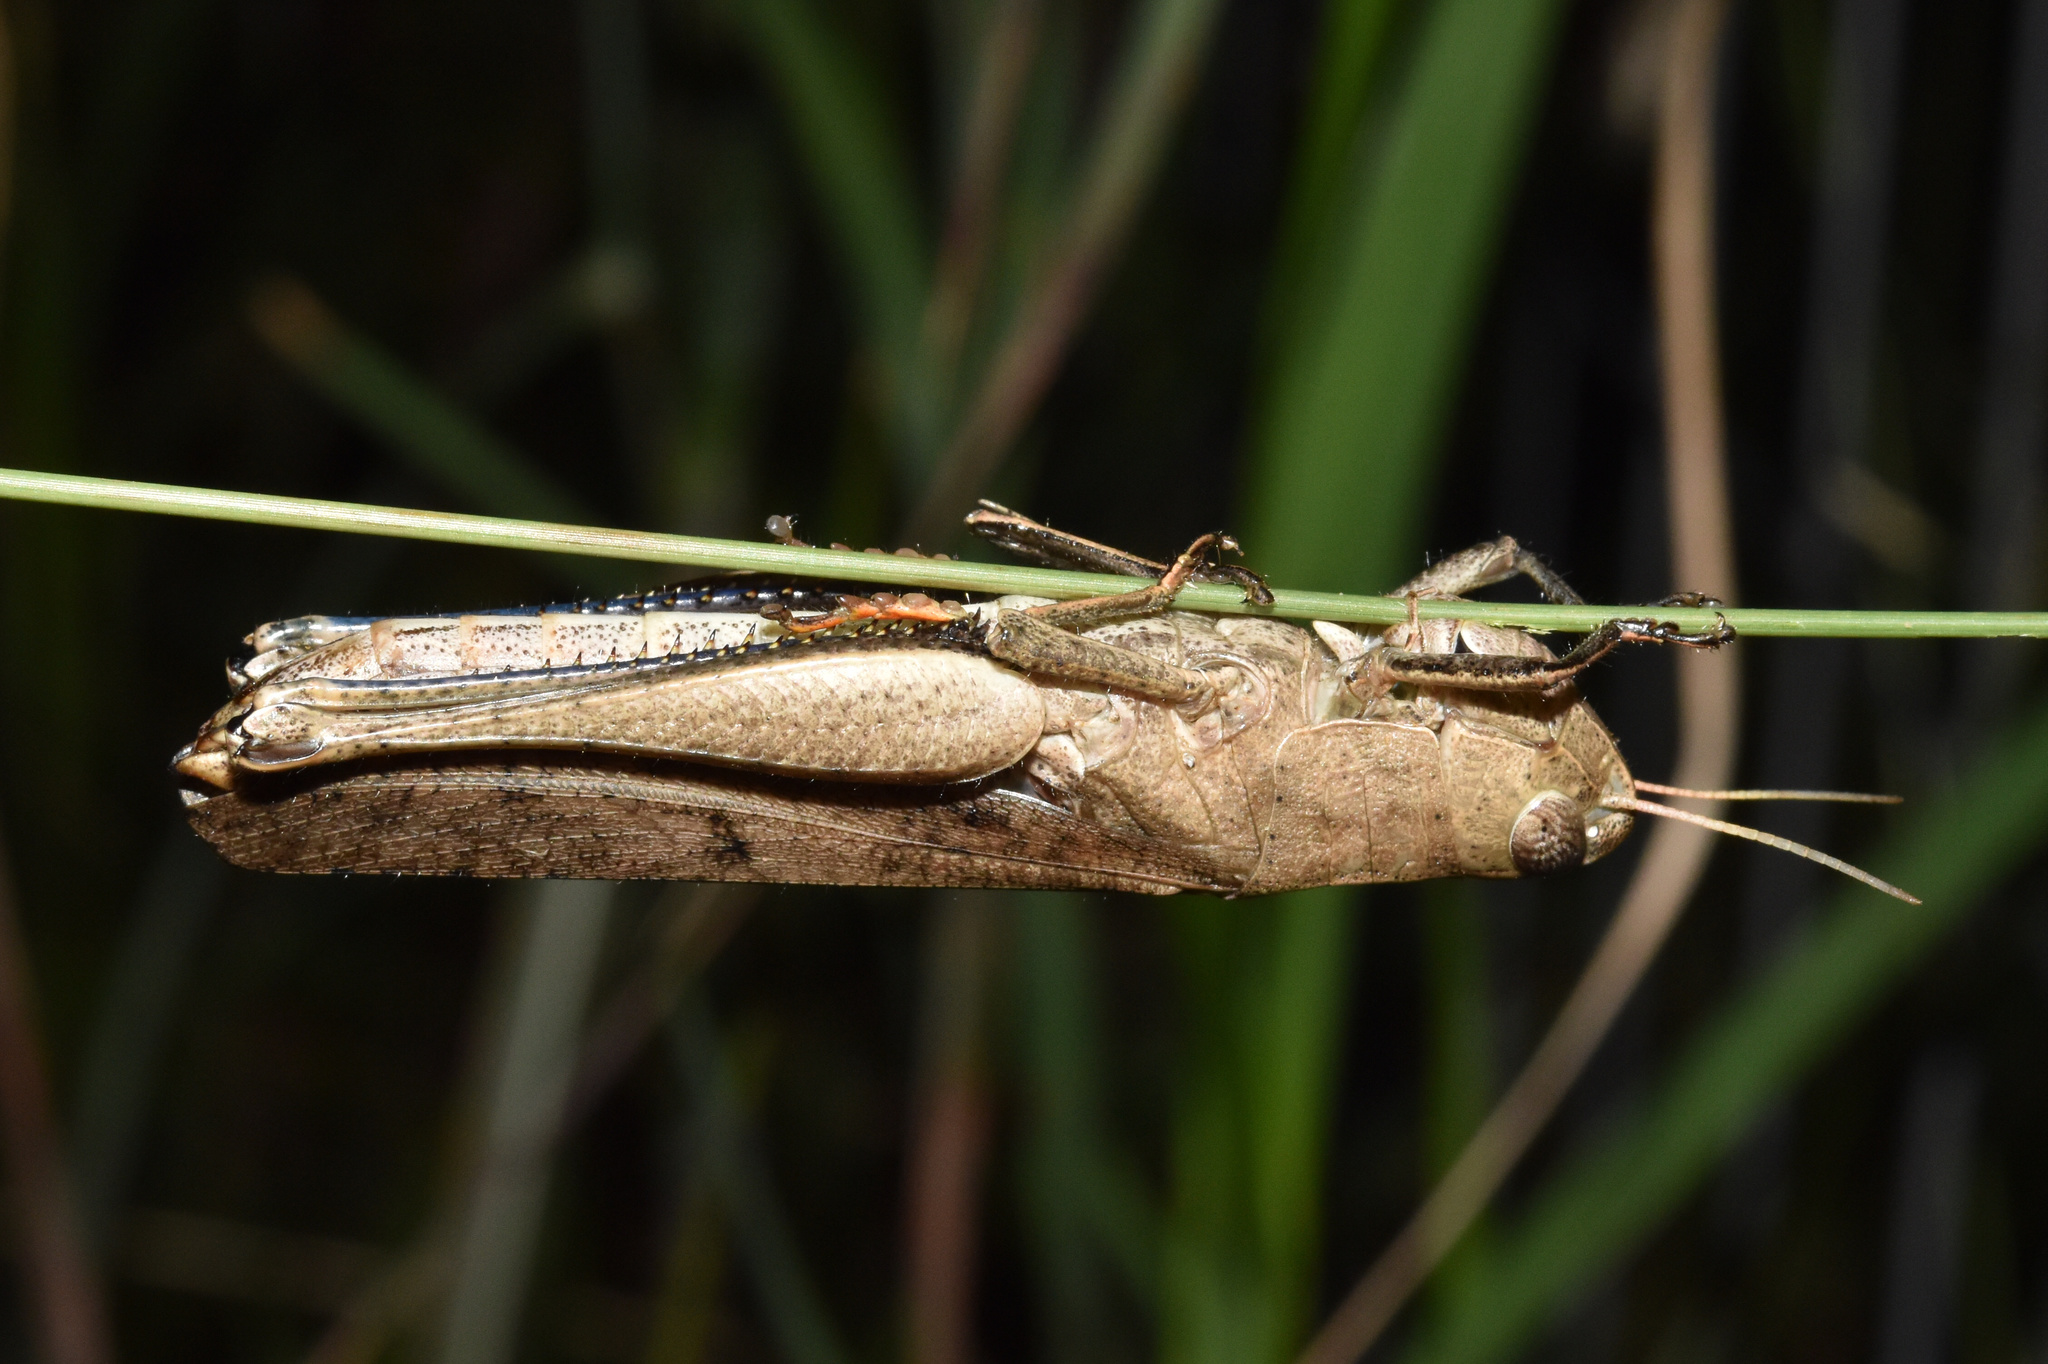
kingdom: Animalia
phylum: Arthropoda
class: Insecta
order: Orthoptera
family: Acrididae
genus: Oraistes
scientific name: Oraistes luridus
